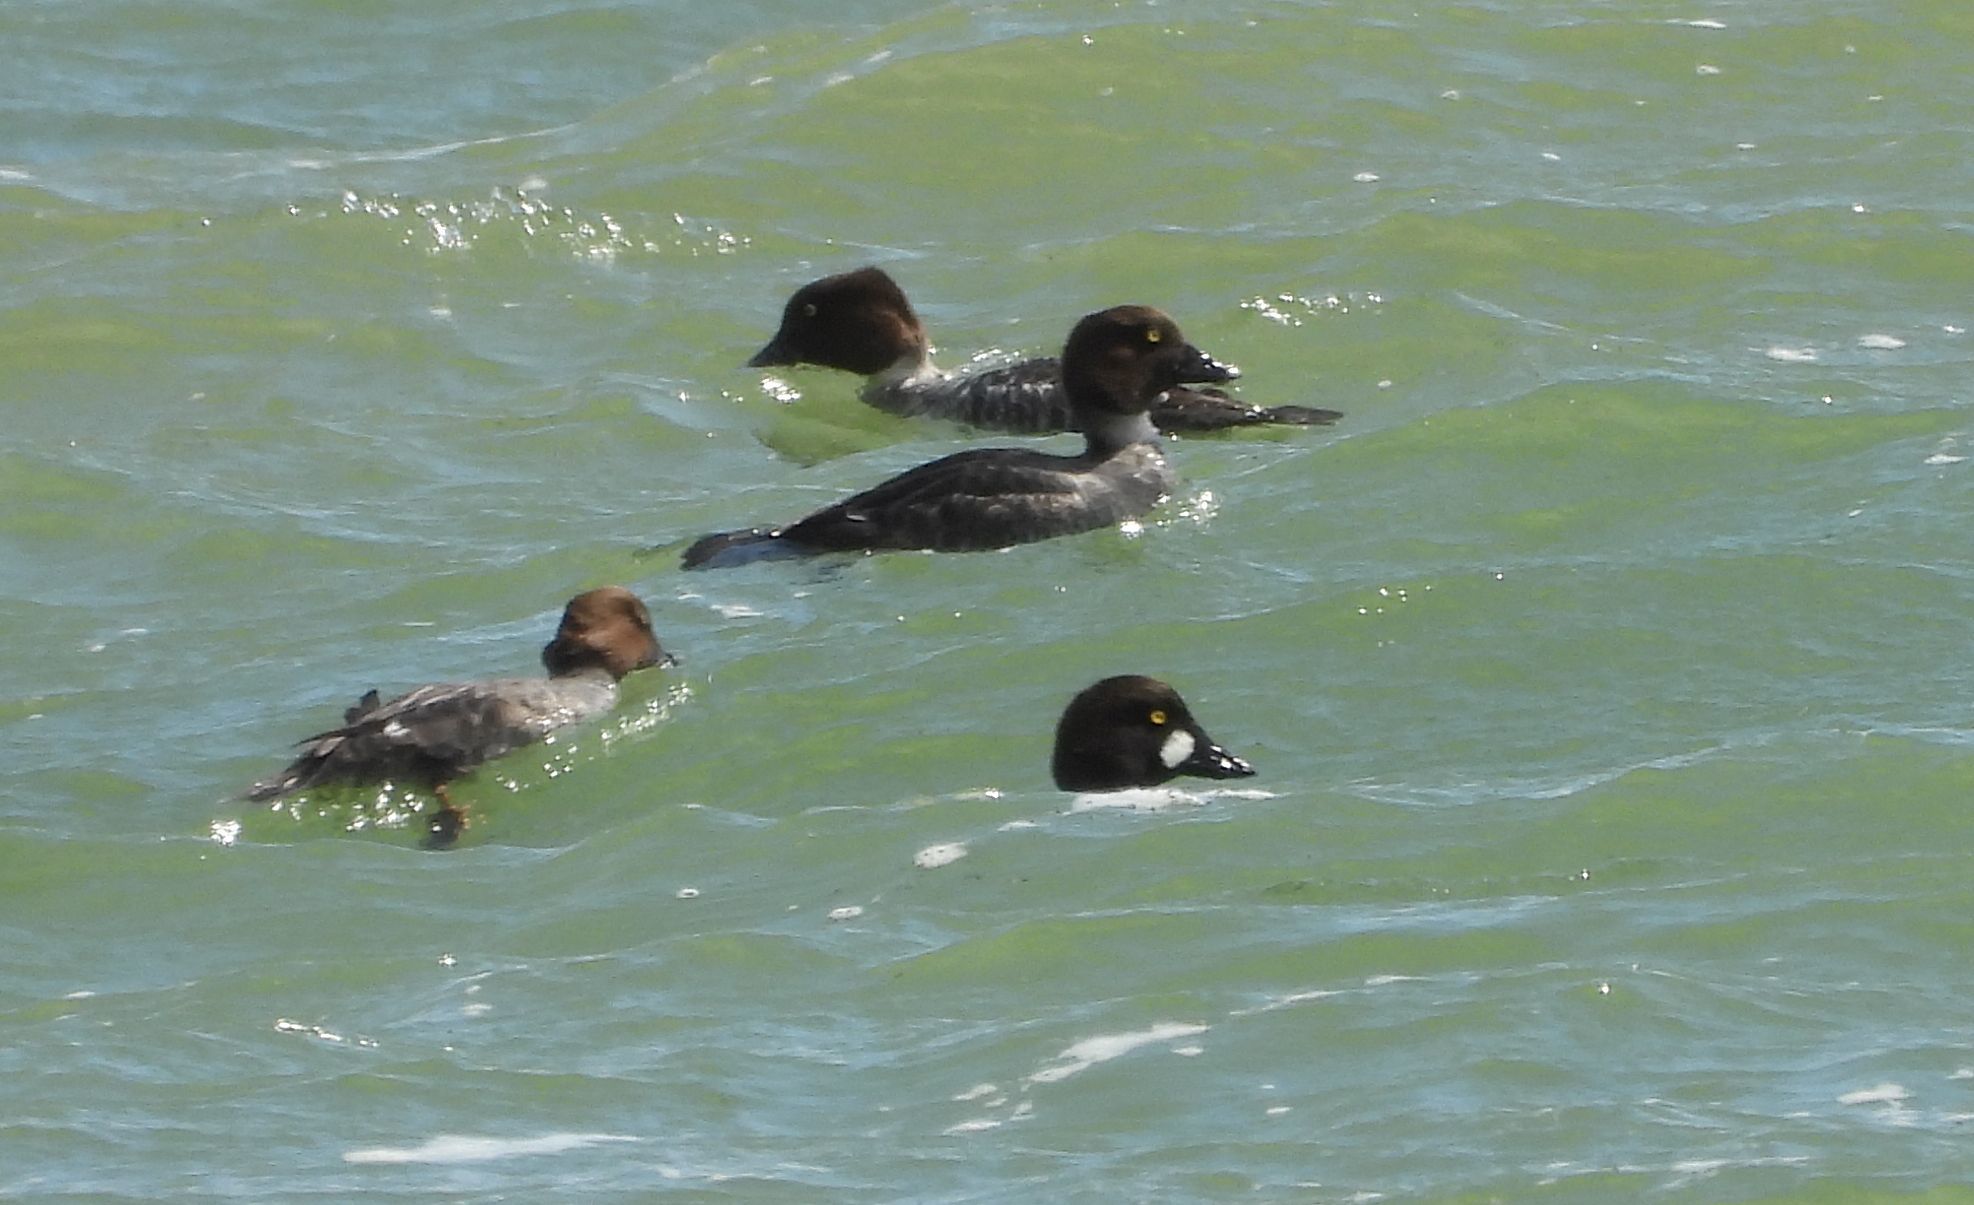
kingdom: Animalia
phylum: Chordata
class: Aves
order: Anseriformes
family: Anatidae
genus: Bucephala
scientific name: Bucephala clangula
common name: Common goldeneye
